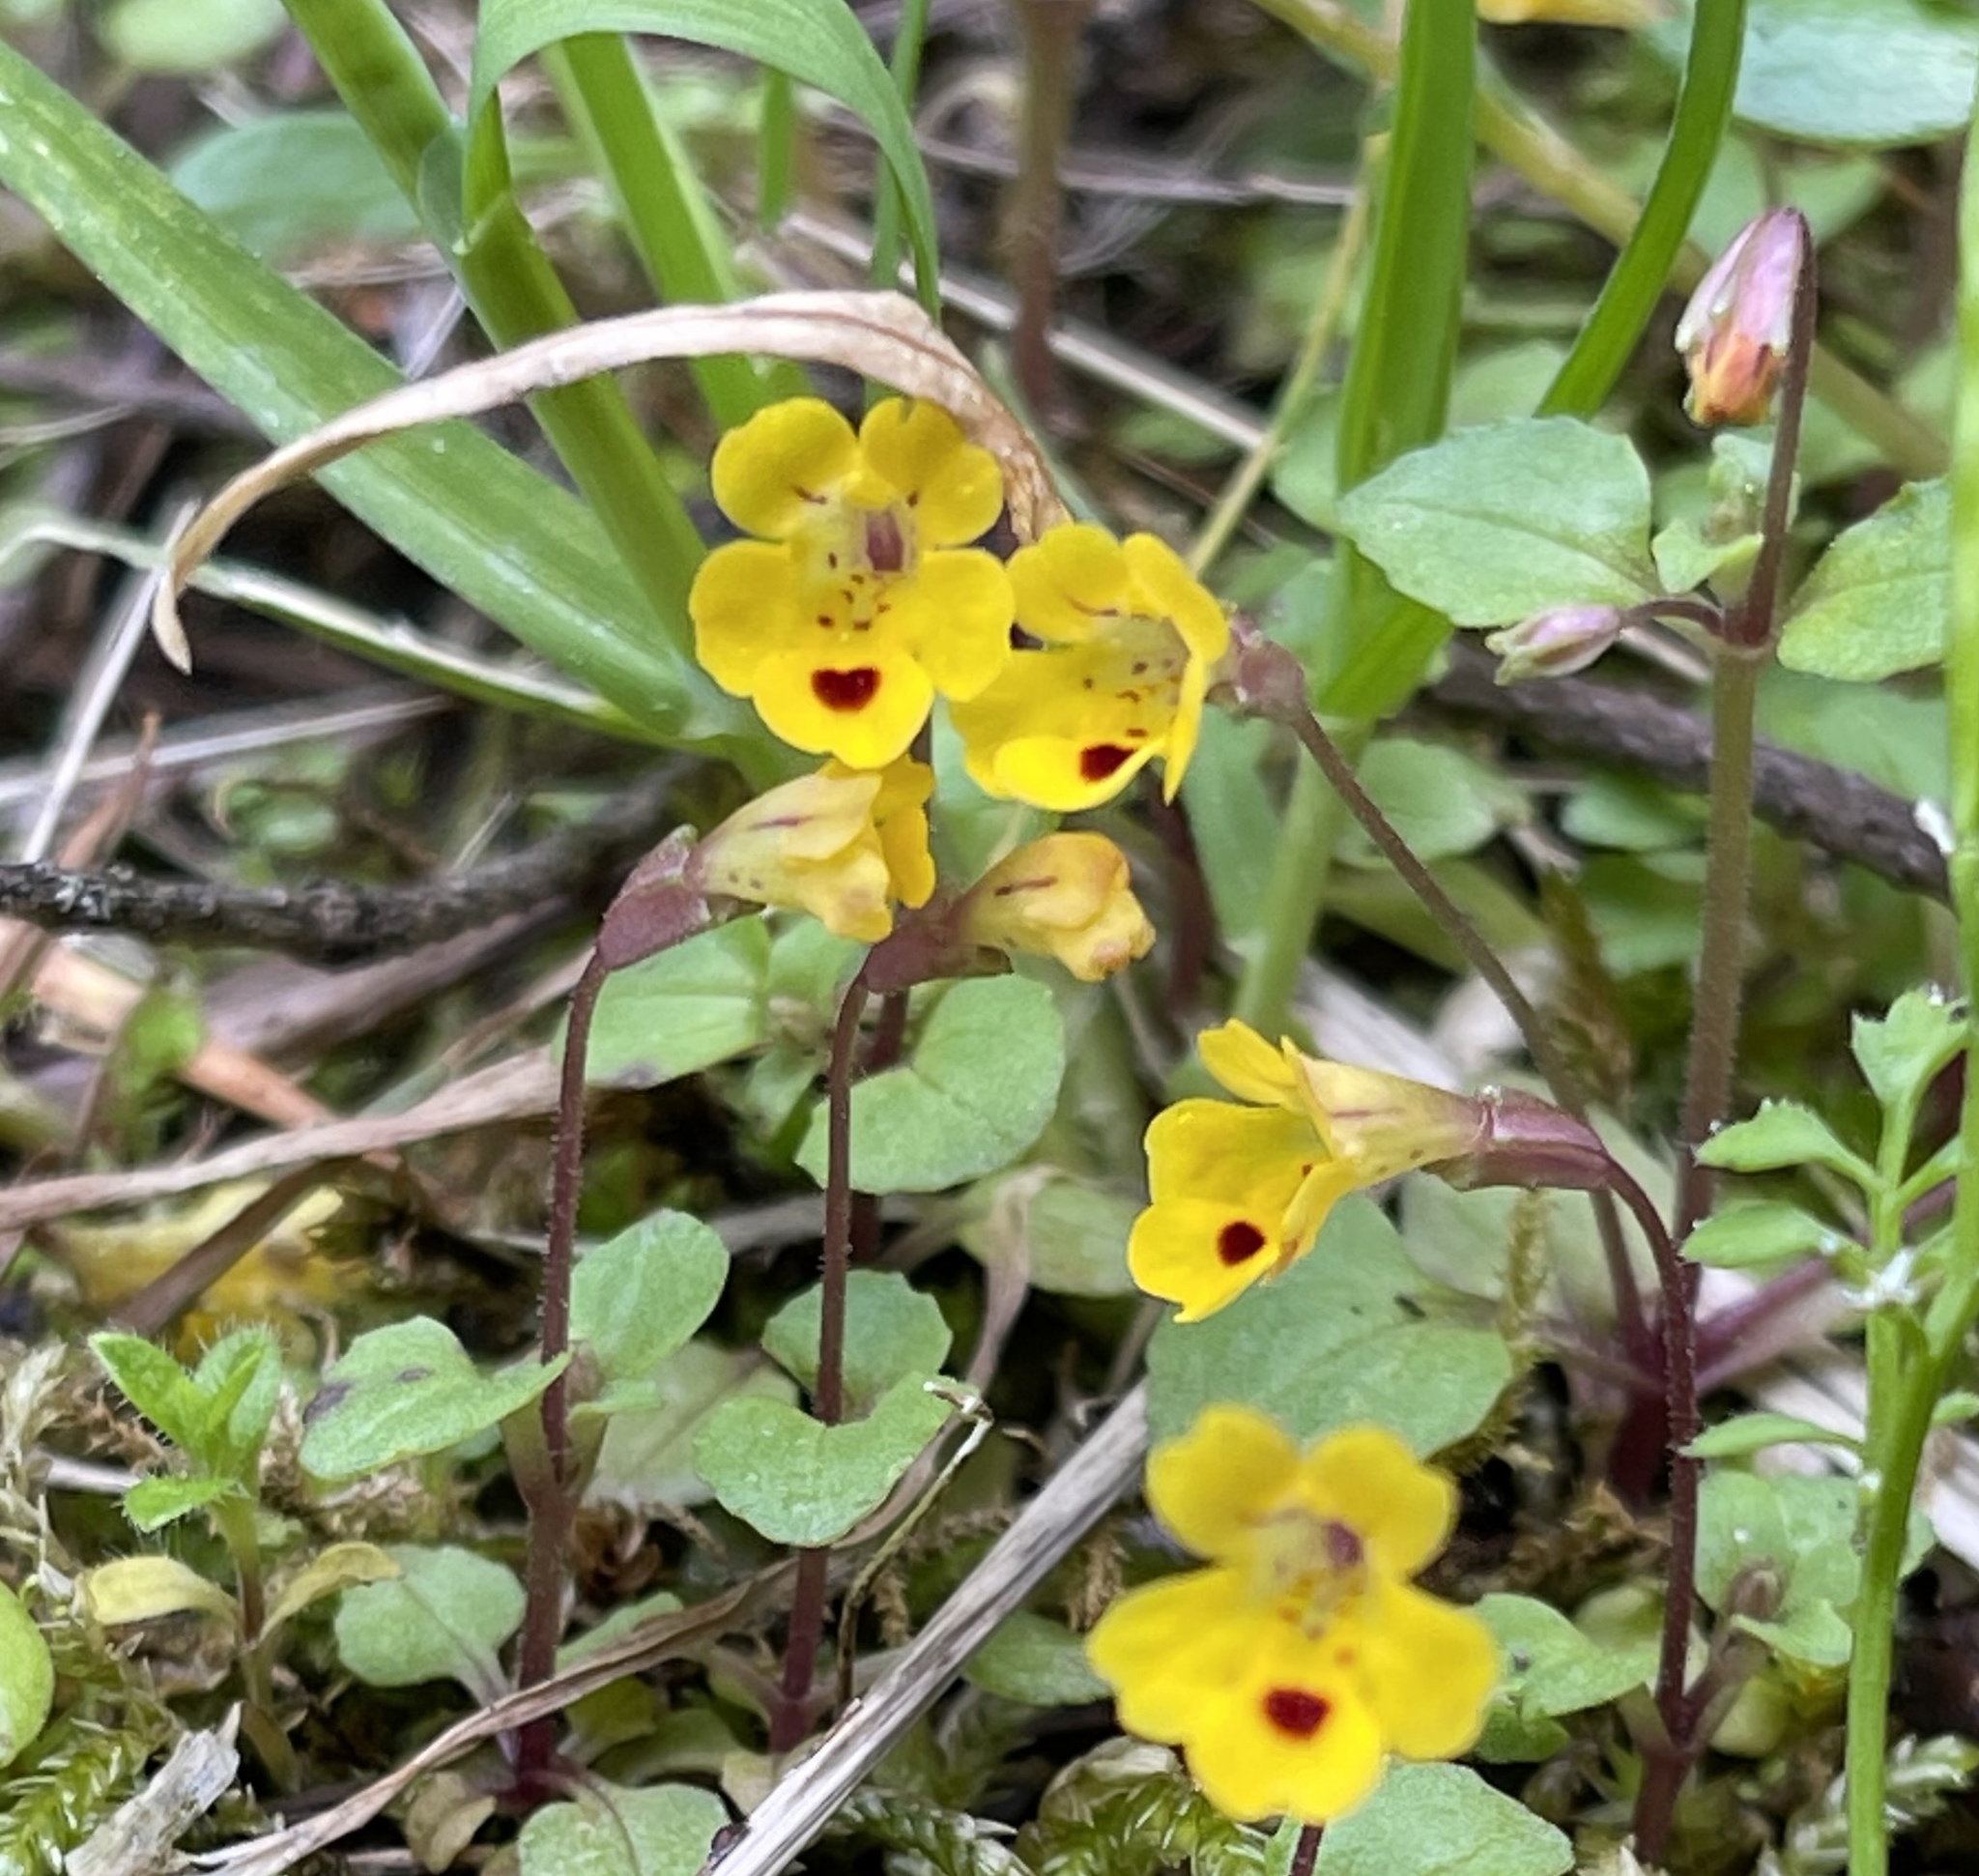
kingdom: Plantae
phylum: Tracheophyta
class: Magnoliopsida
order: Lamiales
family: Phrymaceae
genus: Erythranthe
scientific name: Erythranthe alsinoides
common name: Chickweed monkeyflower
